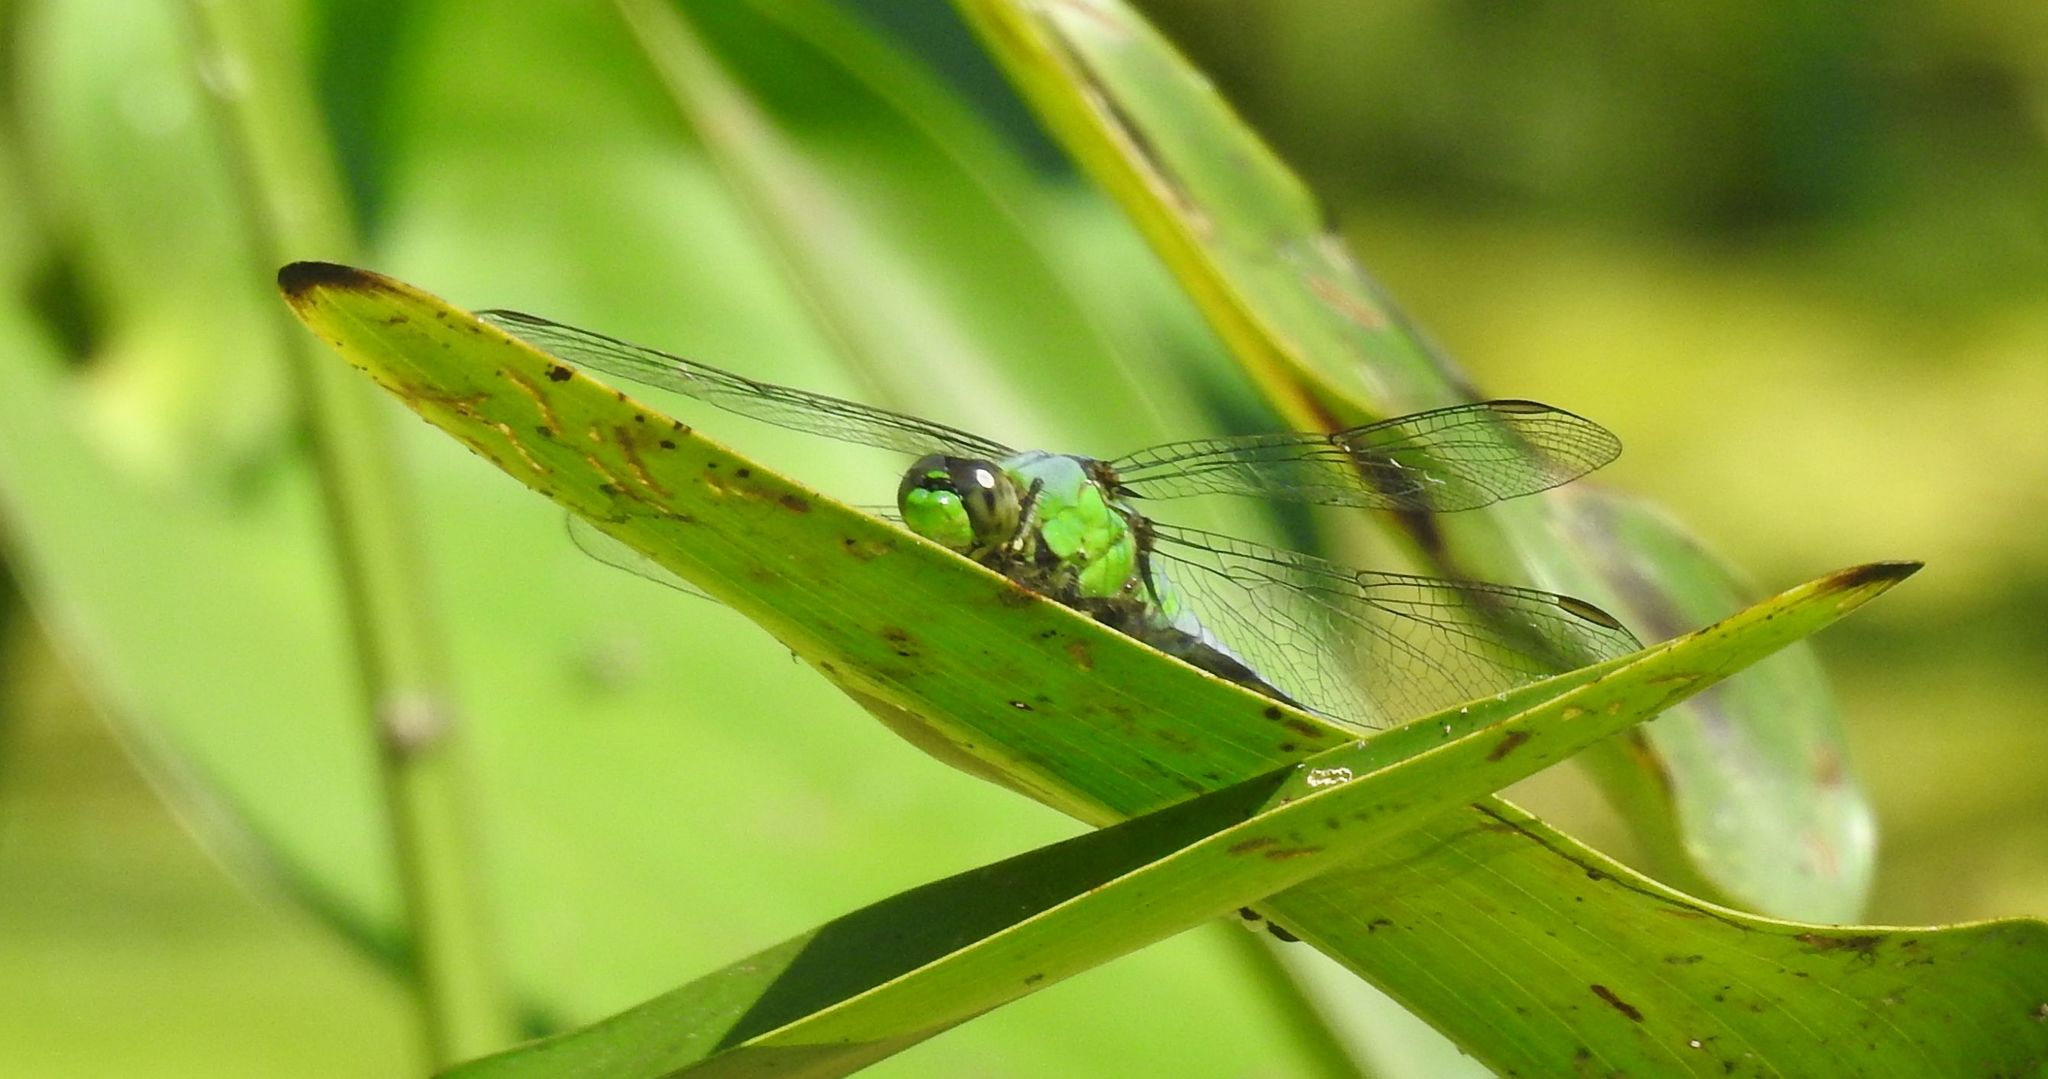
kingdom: Animalia
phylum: Arthropoda
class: Insecta
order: Odonata
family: Libellulidae
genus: Erythemis
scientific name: Erythemis simplicicollis
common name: Eastern pondhawk
